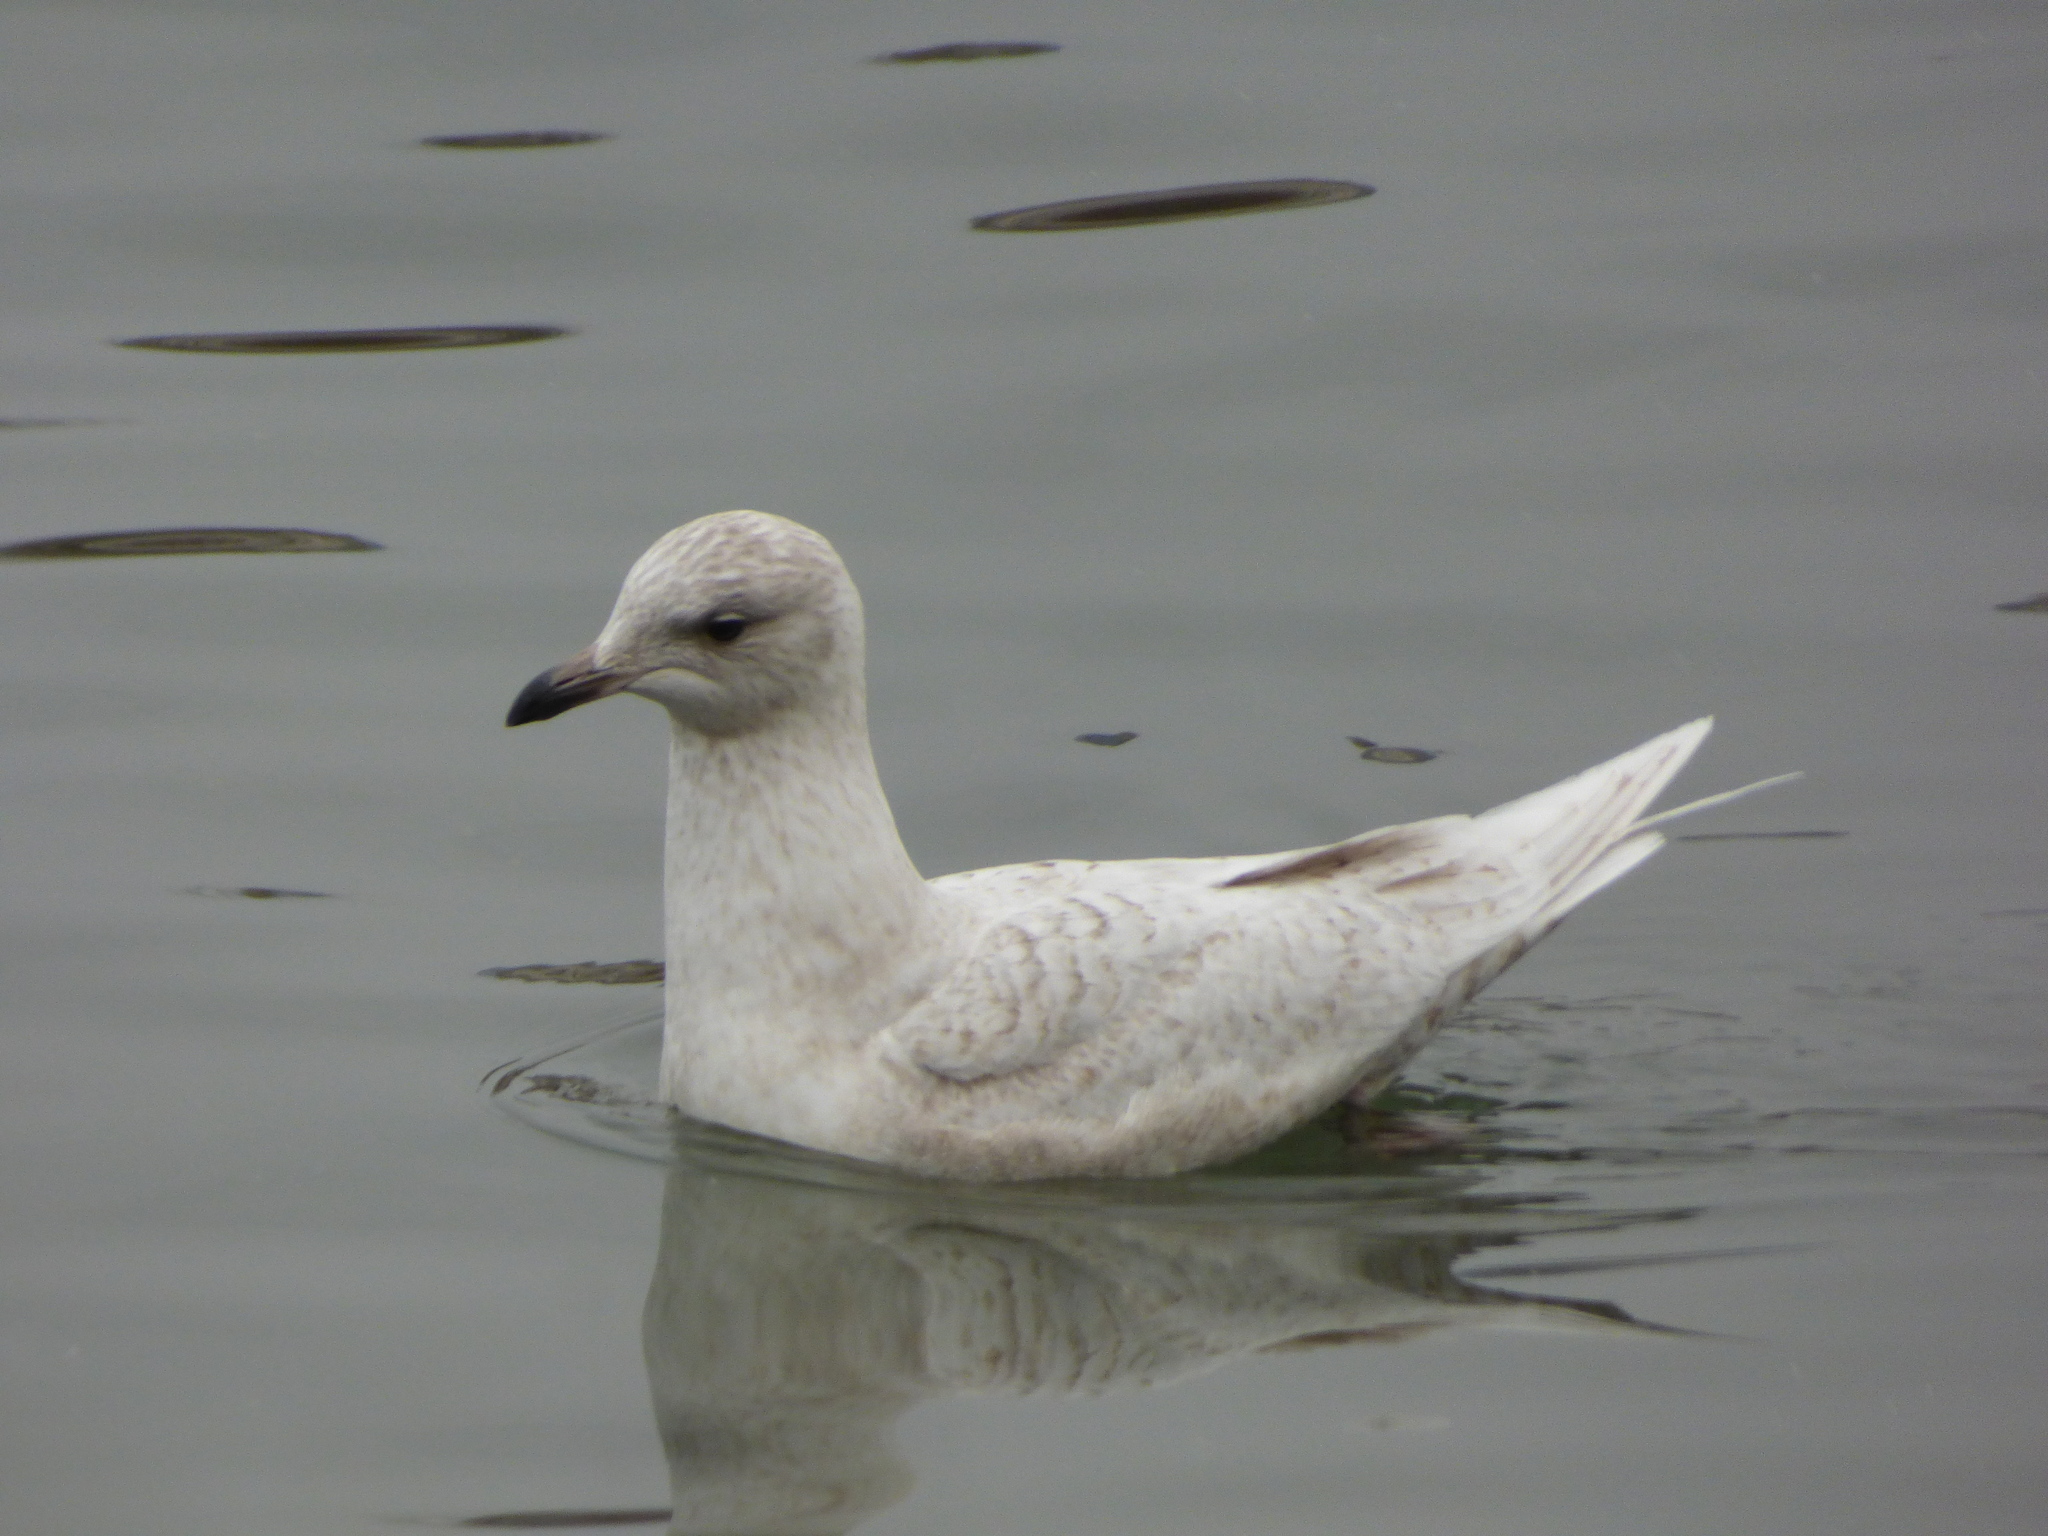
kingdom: Animalia
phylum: Chordata
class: Aves
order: Charadriiformes
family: Laridae
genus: Larus
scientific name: Larus glaucoides
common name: Iceland gull
